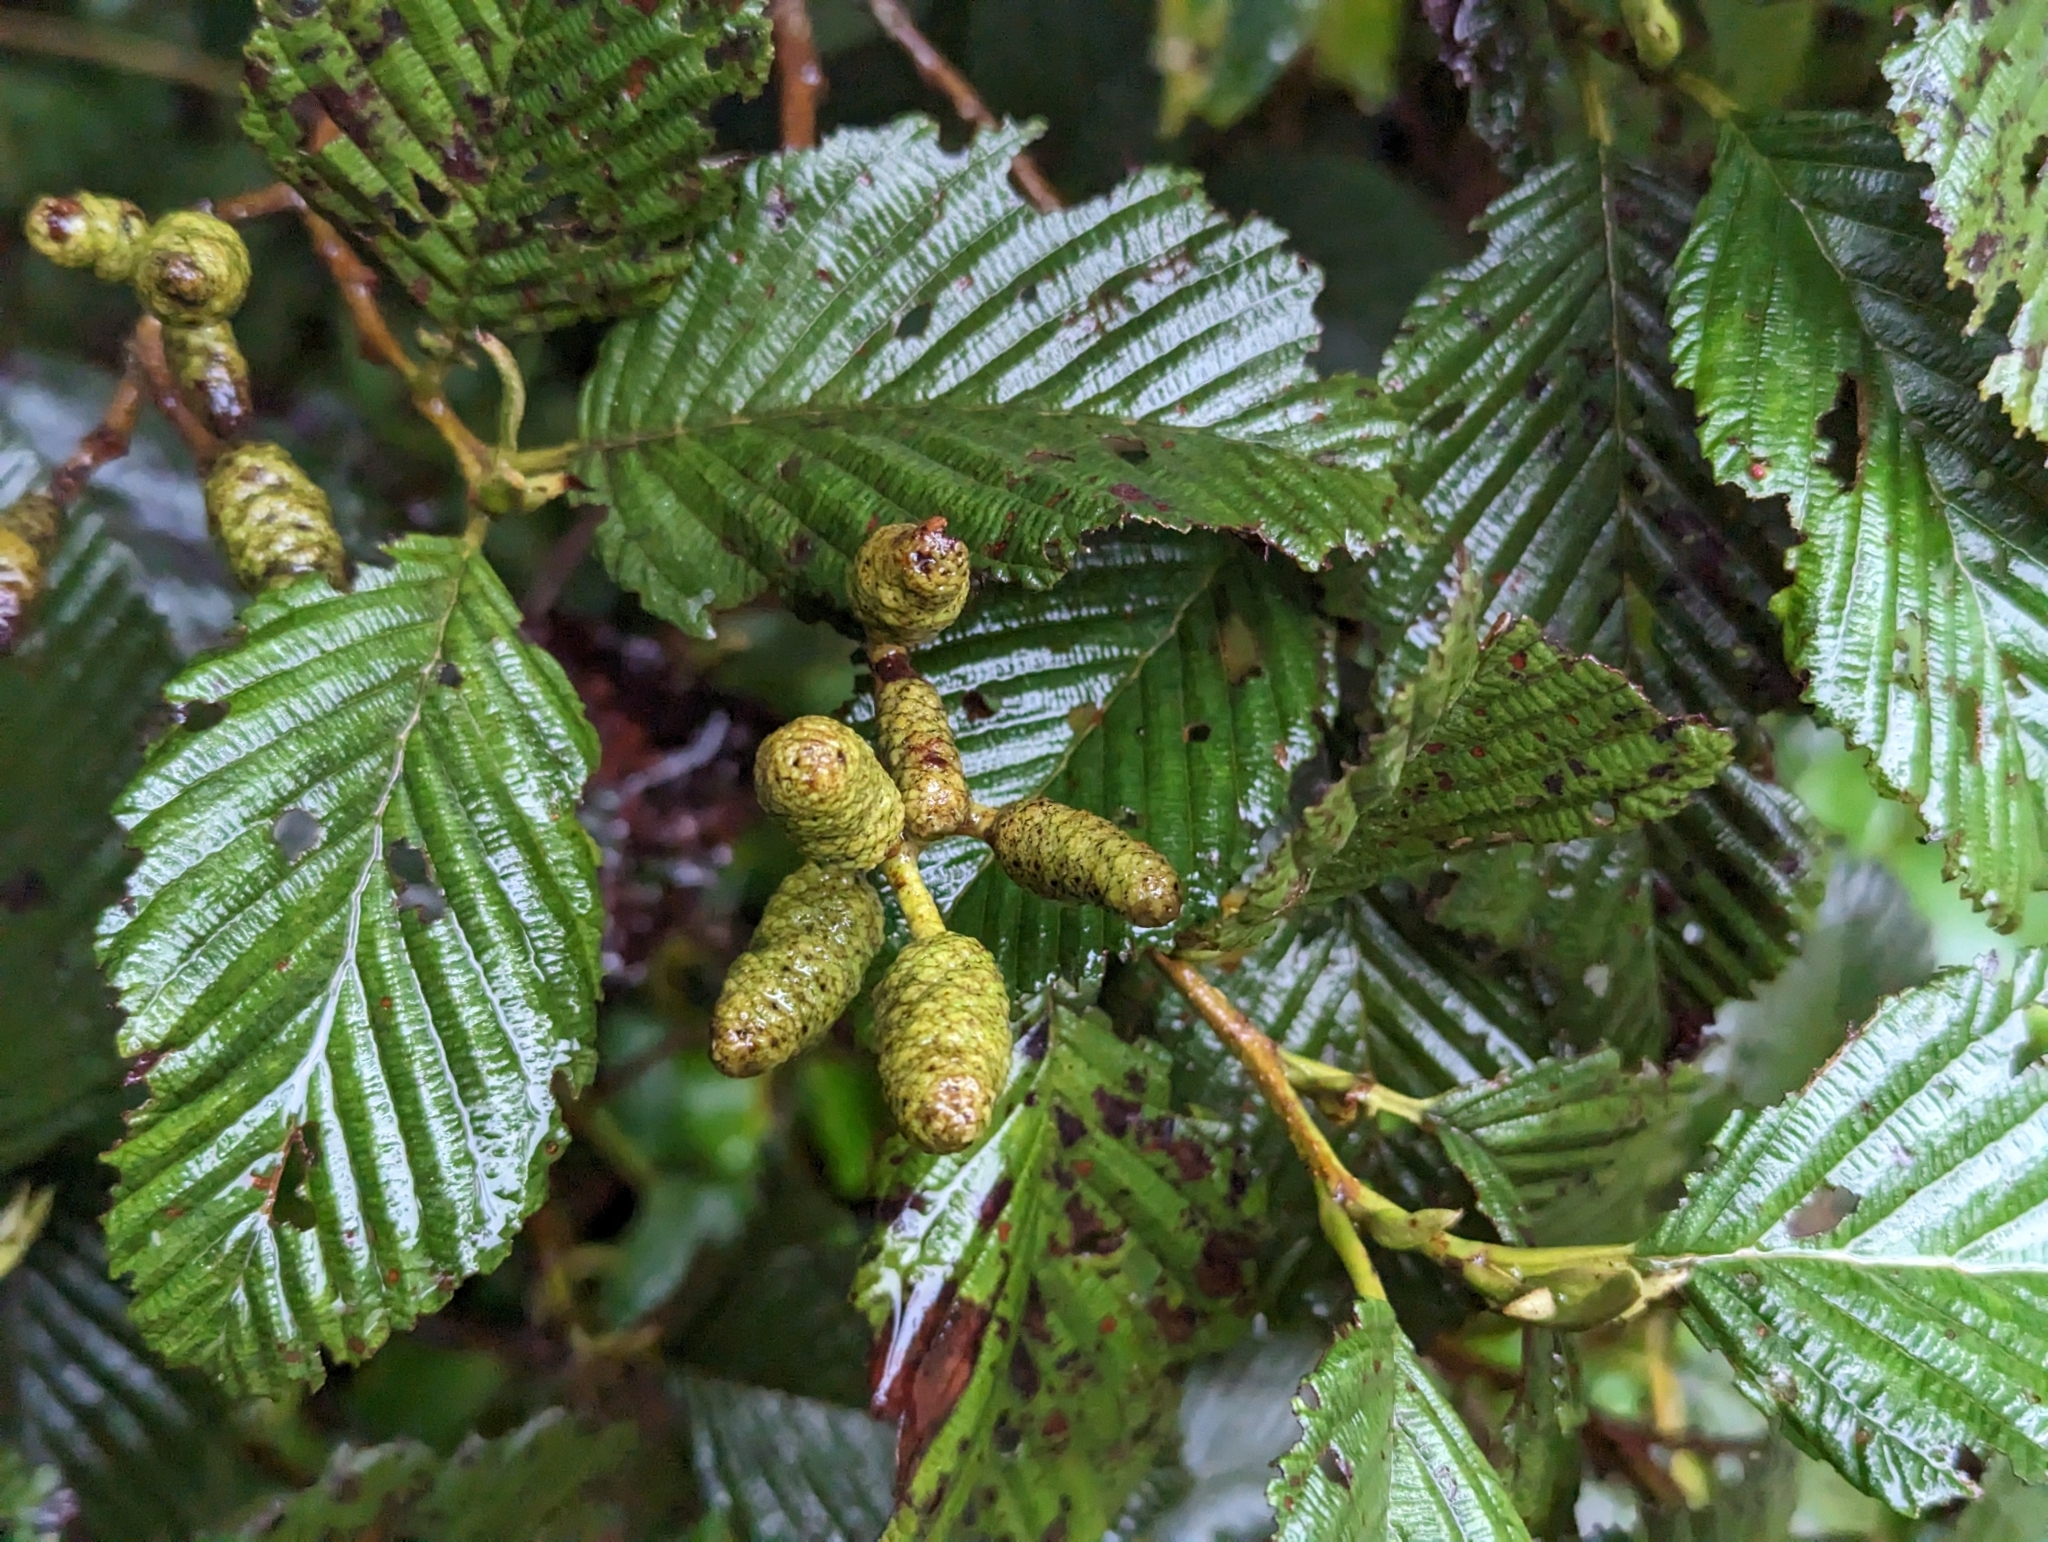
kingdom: Plantae
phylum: Tracheophyta
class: Magnoliopsida
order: Fagales
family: Betulaceae
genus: Alnus
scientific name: Alnus acuminata
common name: Alder
